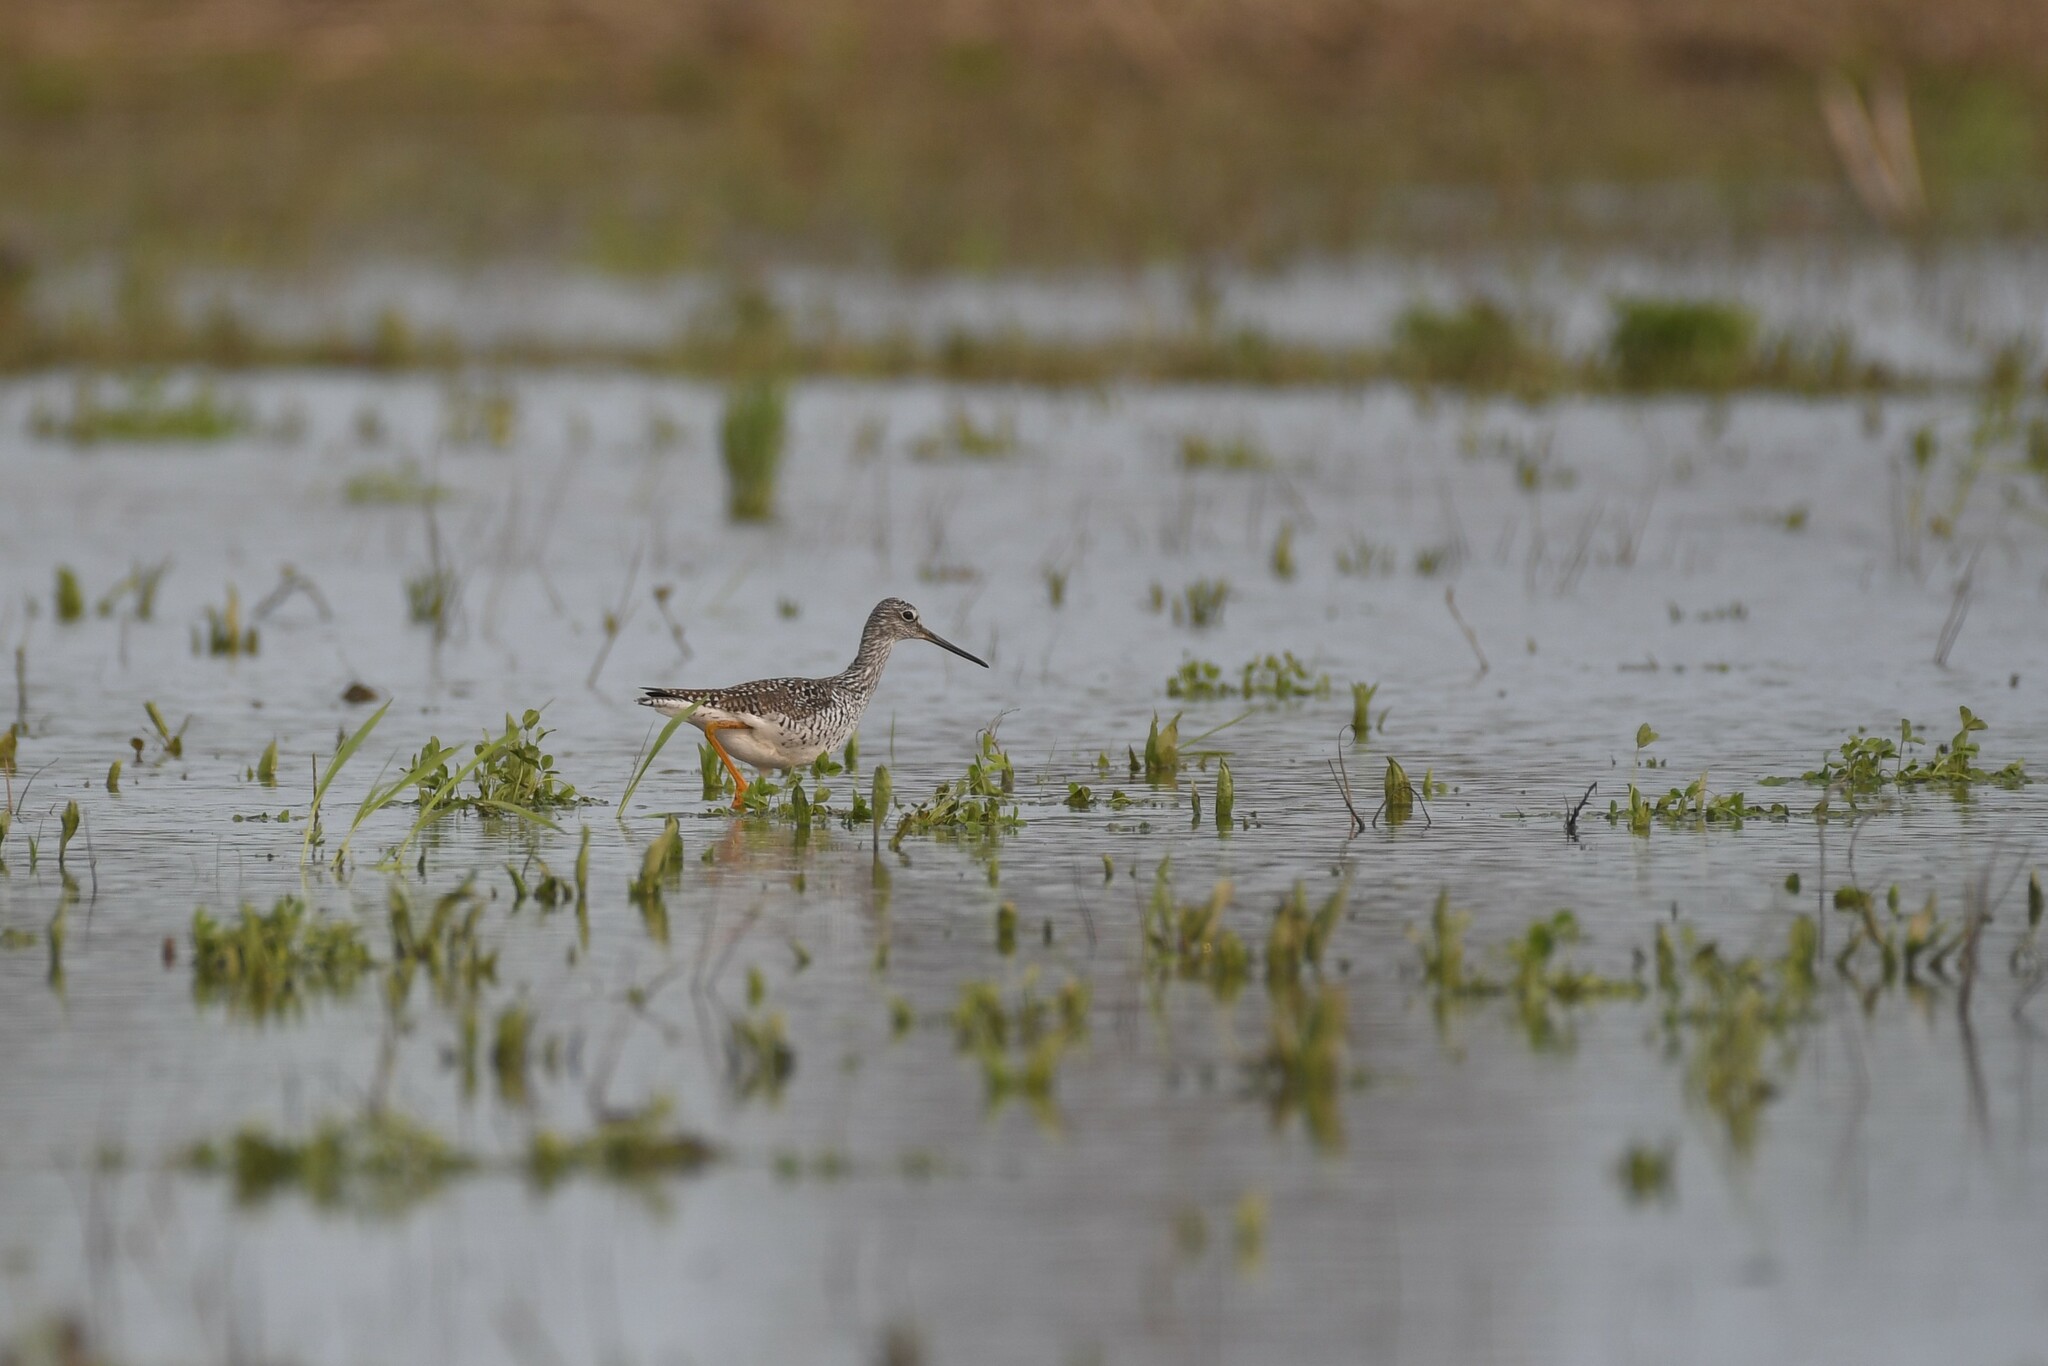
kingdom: Animalia
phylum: Chordata
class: Aves
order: Charadriiformes
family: Scolopacidae
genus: Tringa
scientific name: Tringa melanoleuca
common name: Greater yellowlegs
